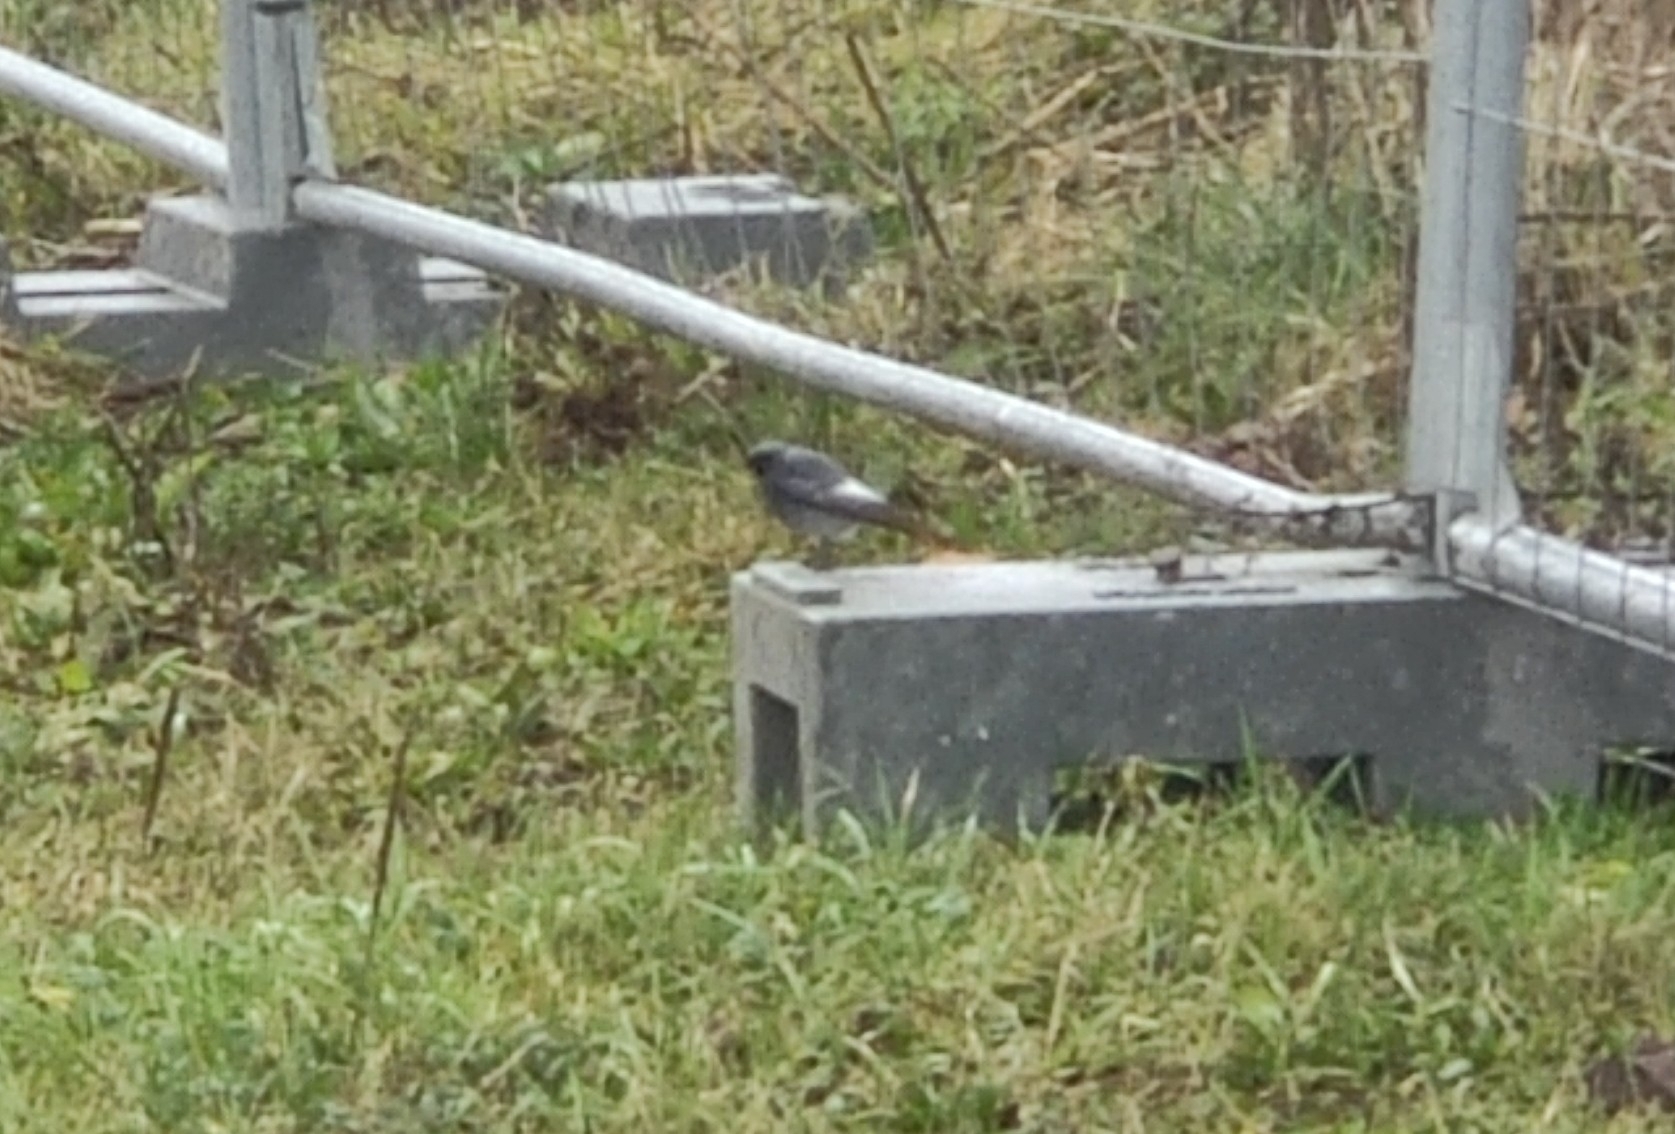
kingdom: Animalia
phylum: Chordata
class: Aves
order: Passeriformes
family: Muscicapidae
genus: Phoenicurus
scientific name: Phoenicurus ochruros
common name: Black redstart
